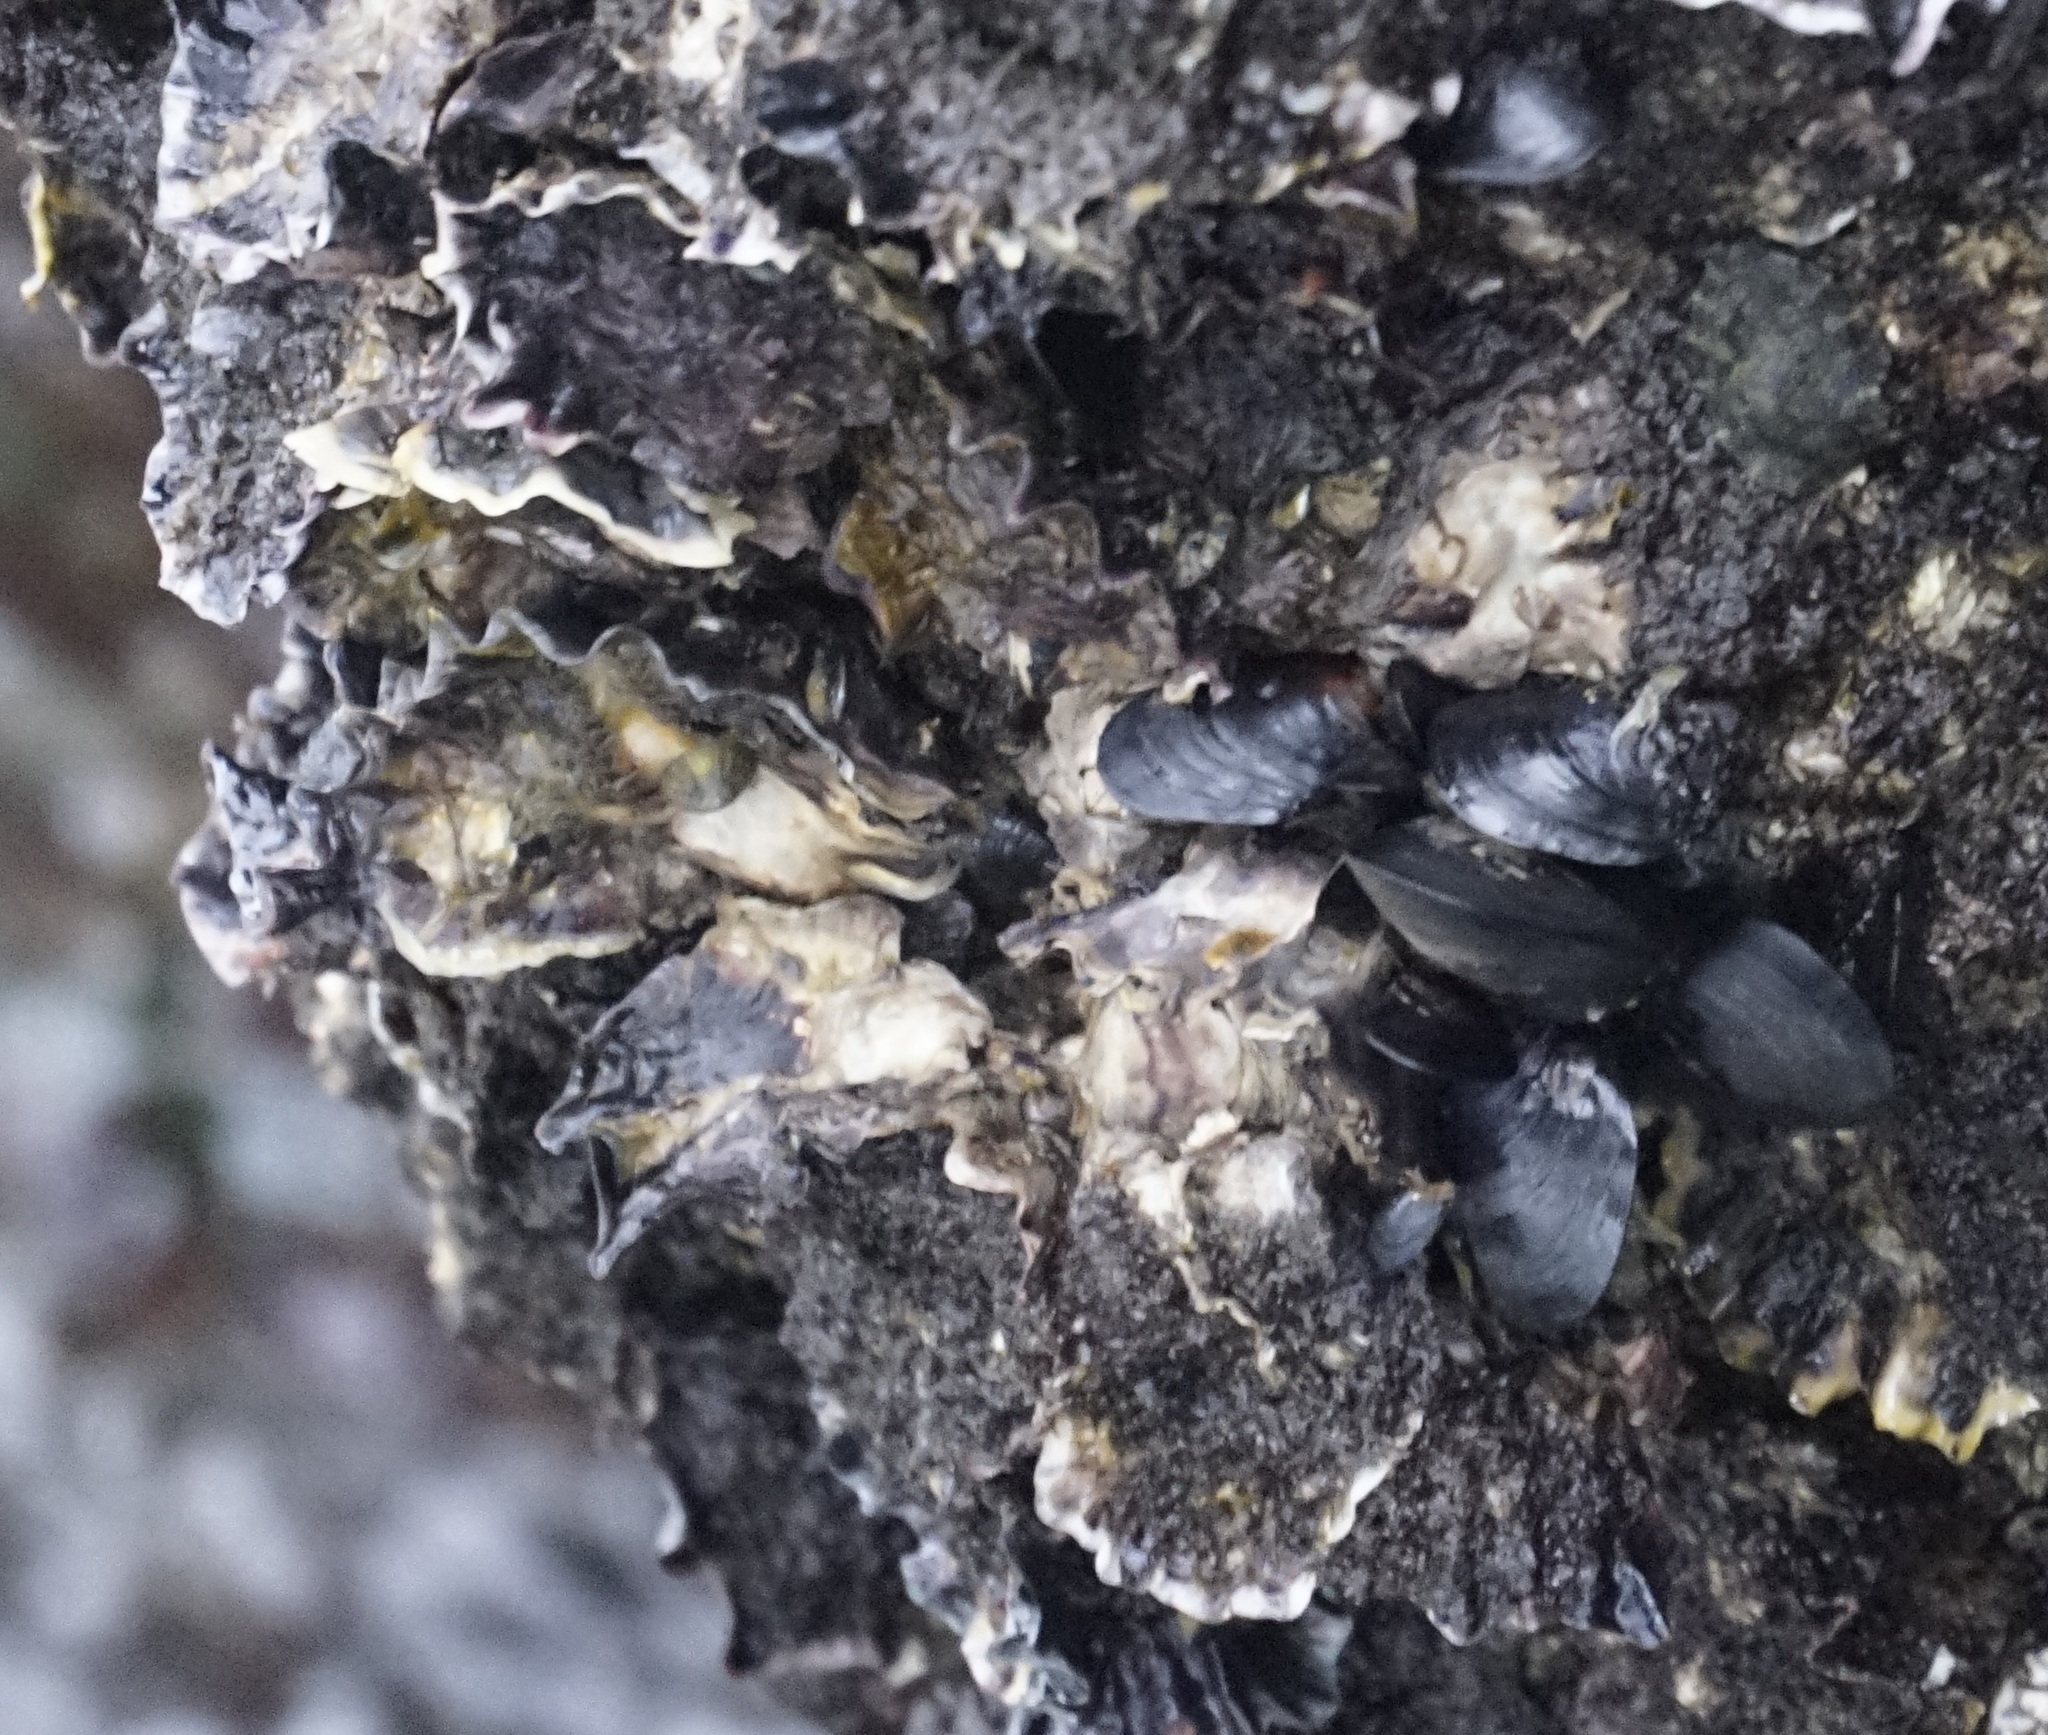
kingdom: Animalia
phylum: Mollusca
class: Bivalvia
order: Ostreida
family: Ostreidae
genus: Saccostrea
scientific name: Saccostrea glomerata
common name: Sydney cupped oyster
